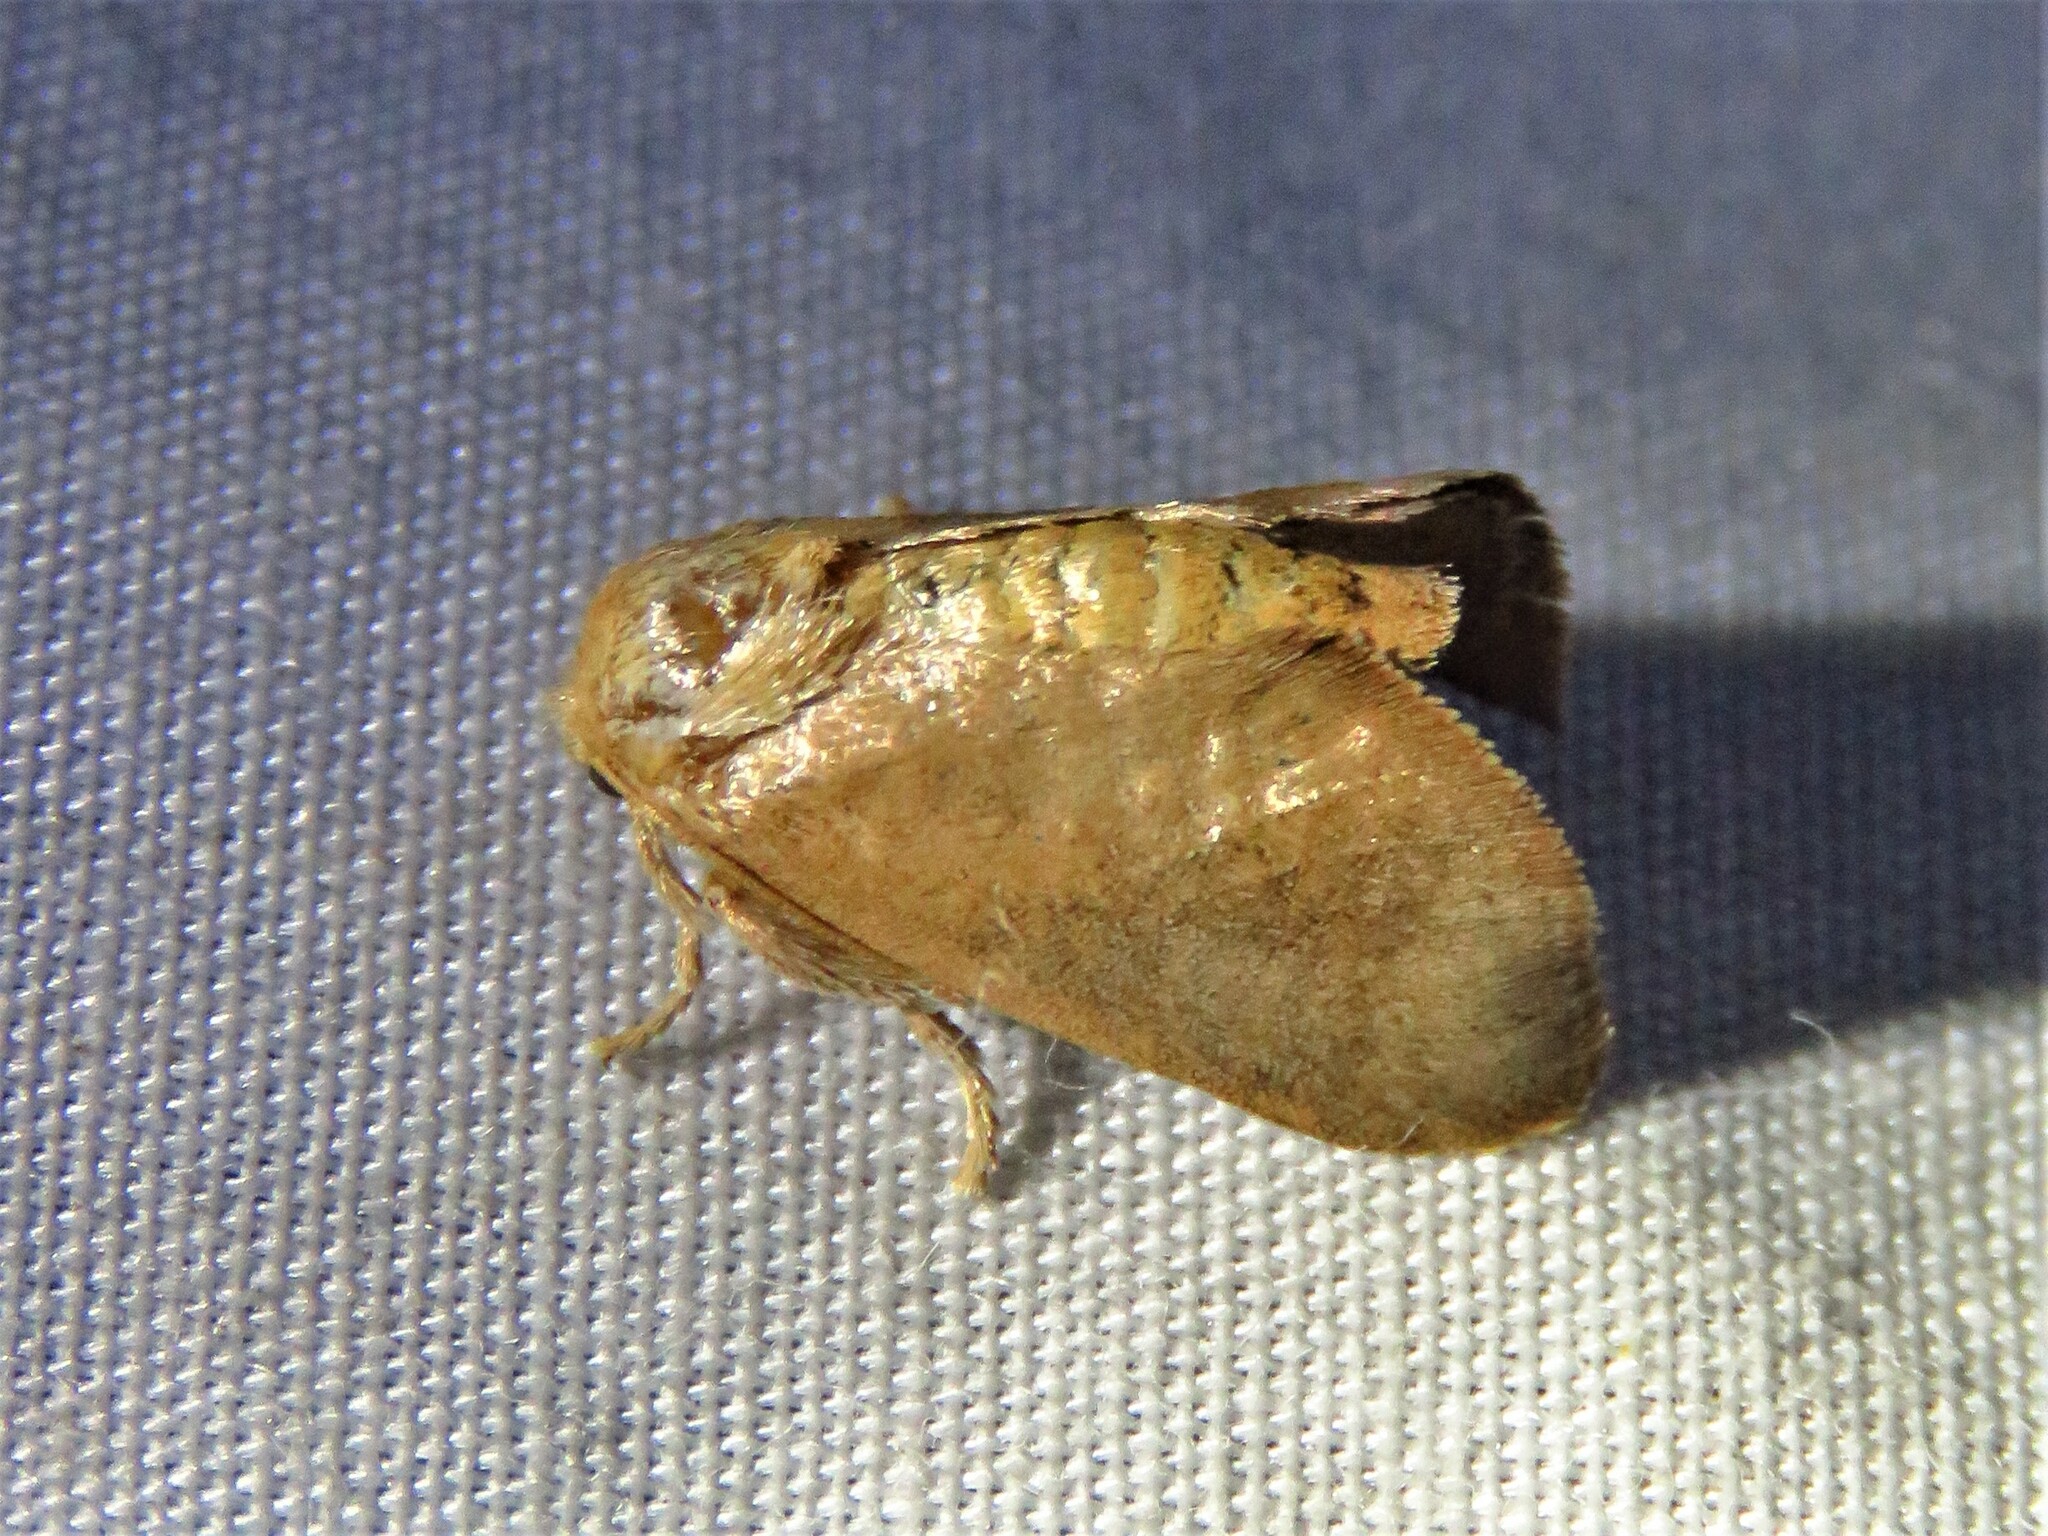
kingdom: Animalia
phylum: Arthropoda
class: Insecta
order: Lepidoptera
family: Limacodidae
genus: Isa
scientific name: Isa textula
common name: Crowned slug moth
